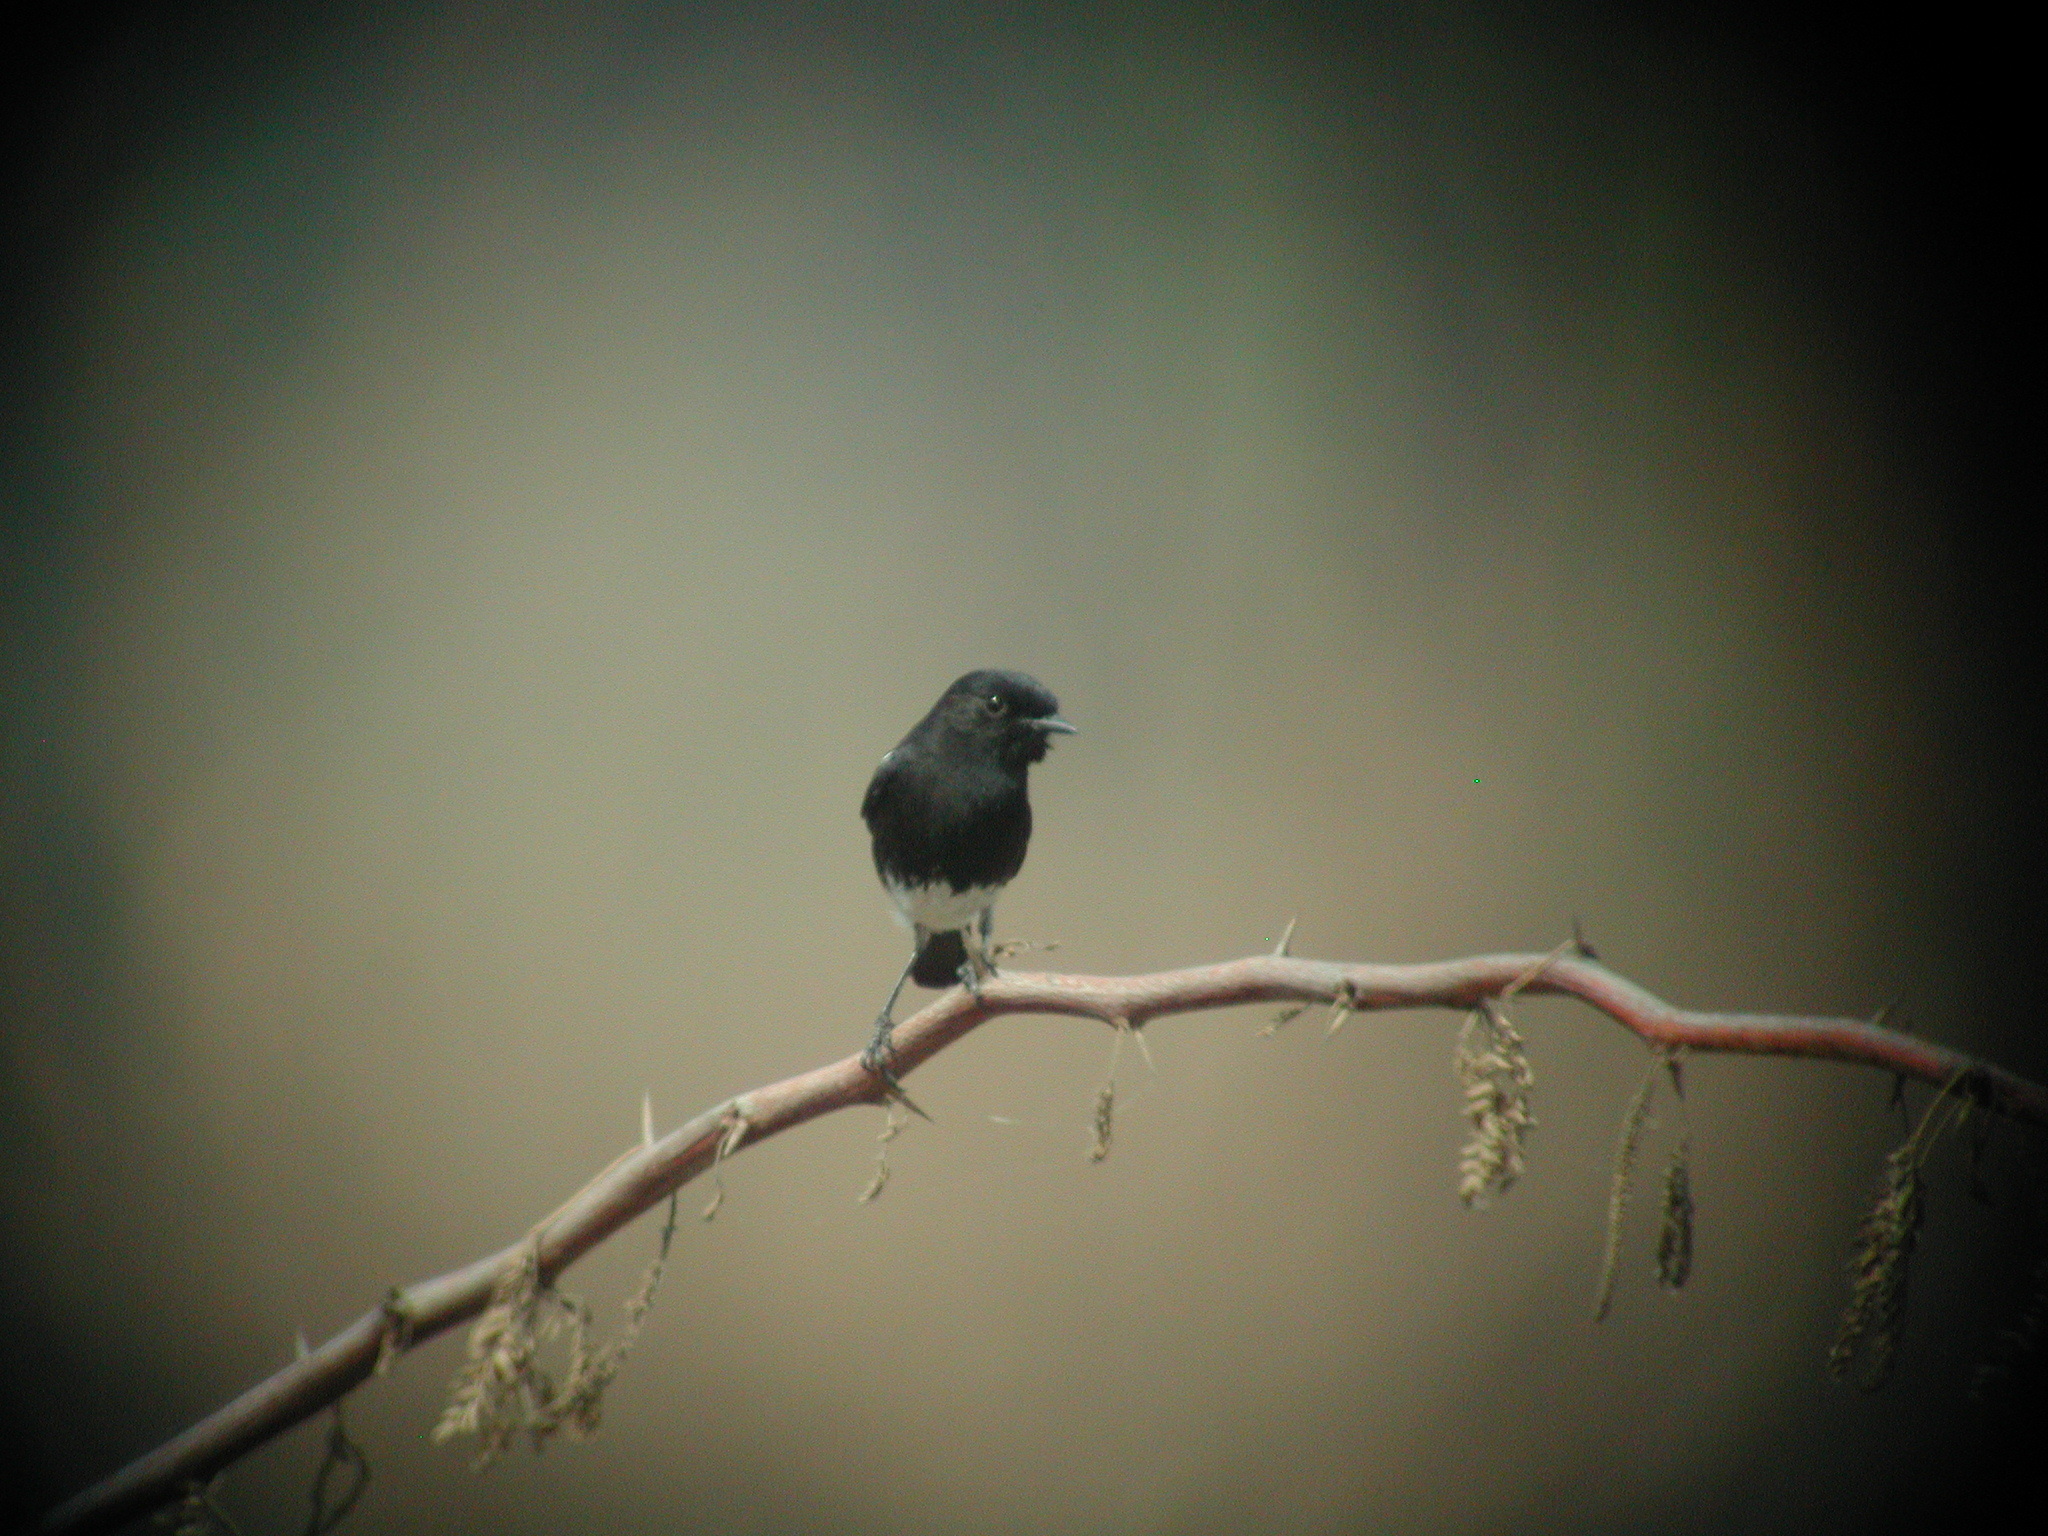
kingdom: Animalia
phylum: Chordata
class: Aves
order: Passeriformes
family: Muscicapidae
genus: Saxicola
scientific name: Saxicola caprata
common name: Pied bush chat
